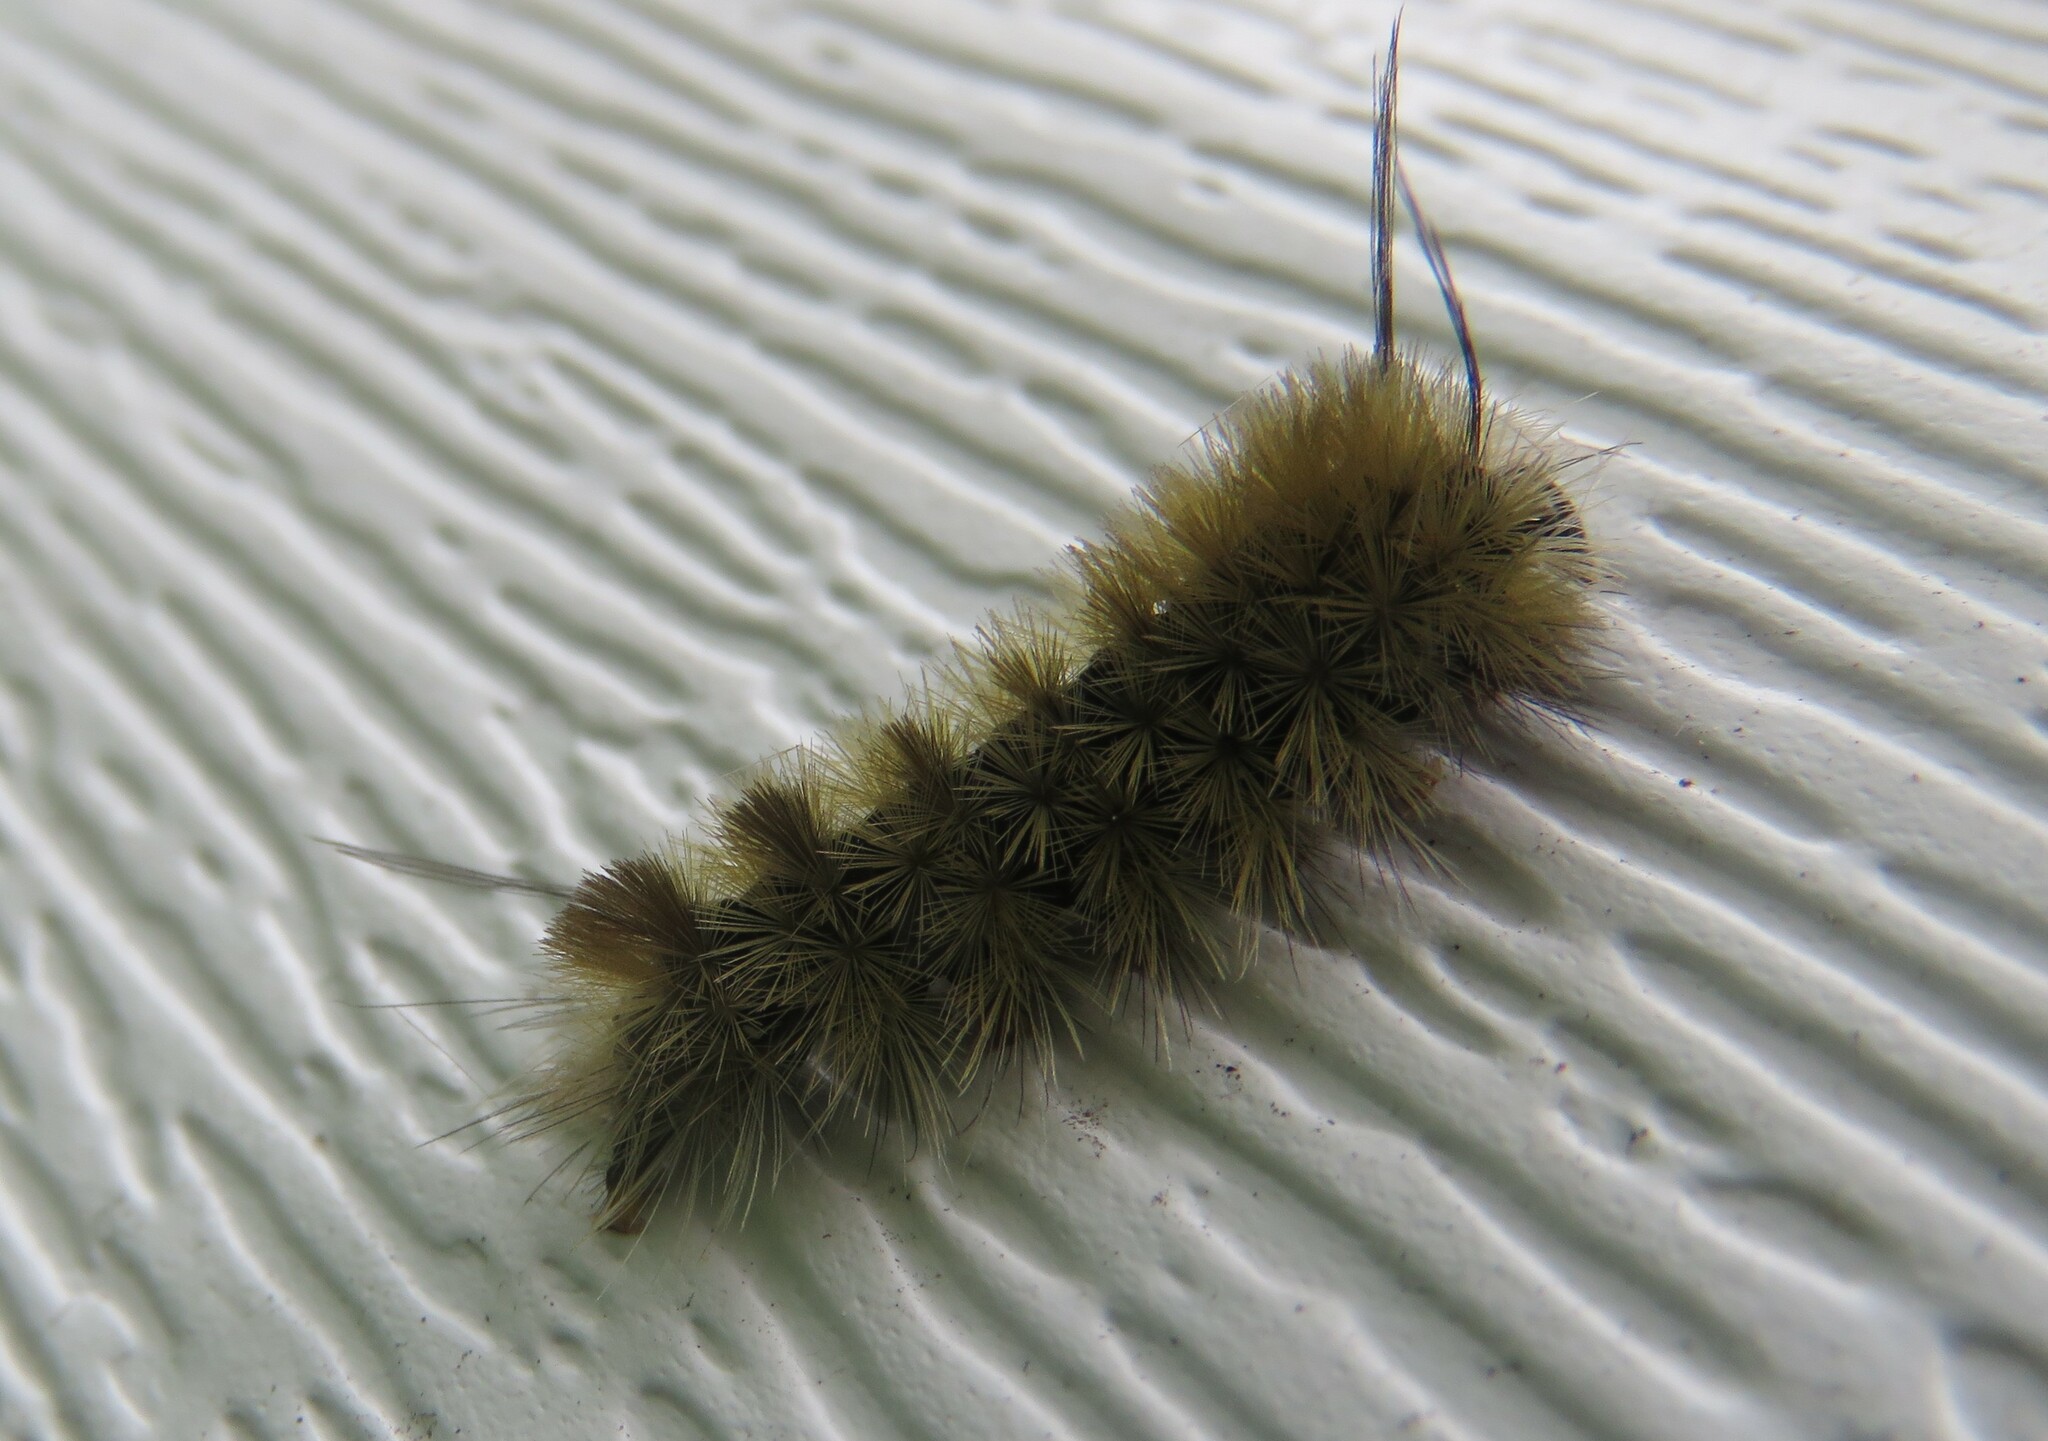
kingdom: Animalia
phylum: Arthropoda
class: Insecta
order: Lepidoptera
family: Erebidae
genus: Halysidota
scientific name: Halysidota tessellaris
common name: Banded tussock moth
